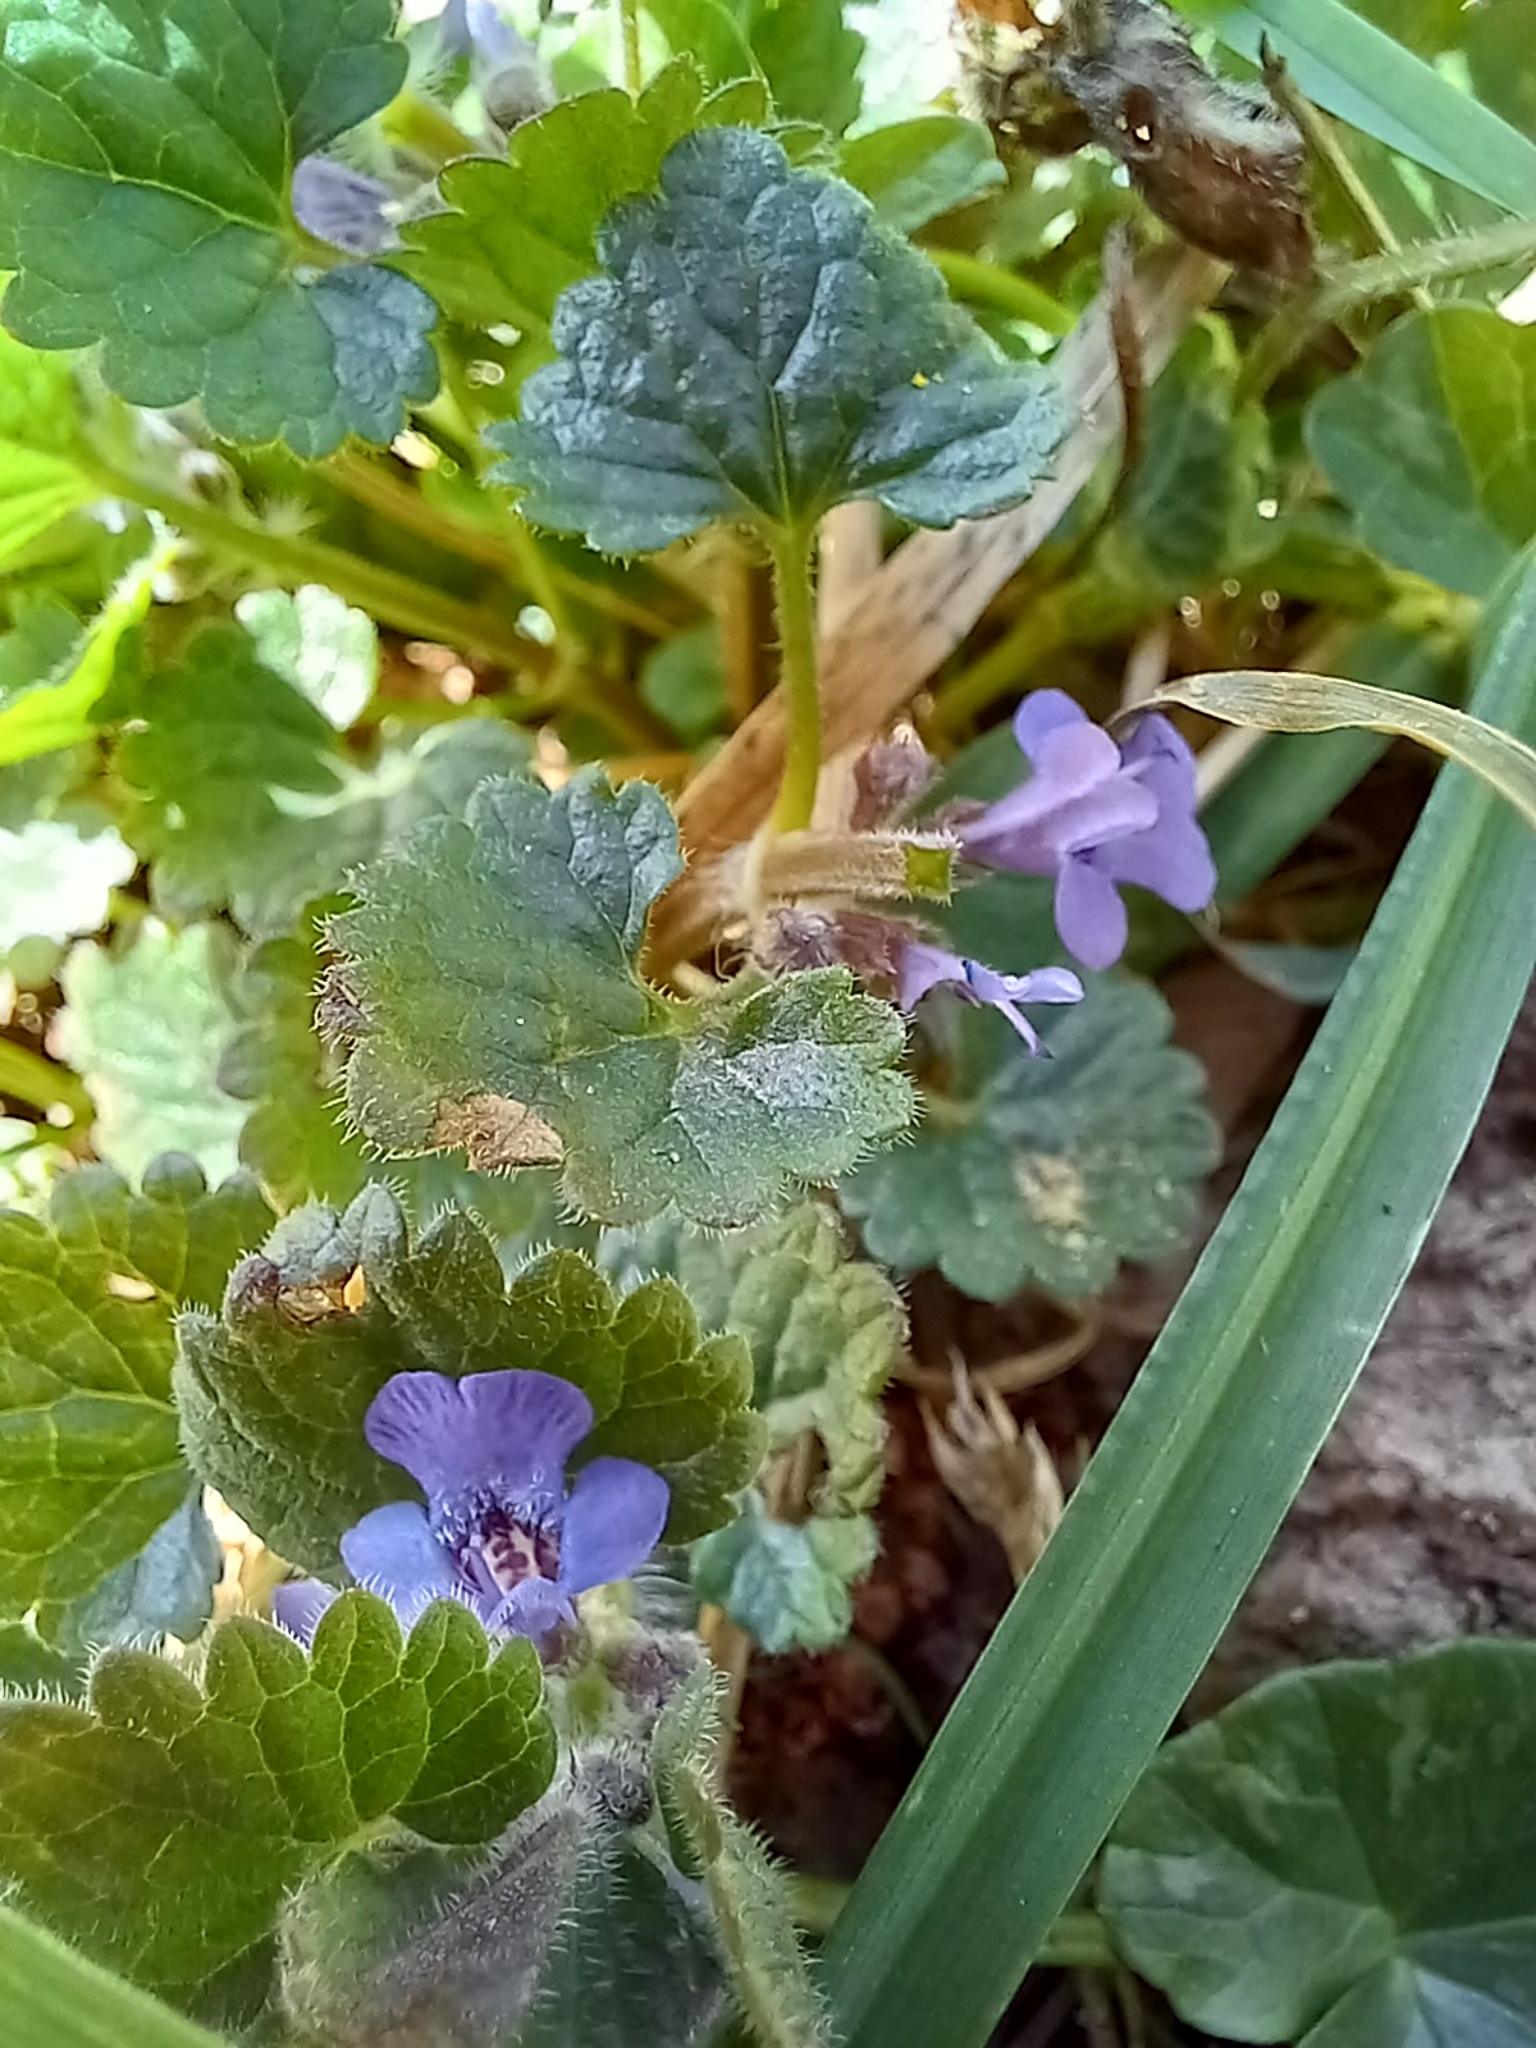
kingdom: Plantae
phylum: Tracheophyta
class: Magnoliopsida
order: Lamiales
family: Lamiaceae
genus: Glechoma
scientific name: Glechoma hederacea
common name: Ground ivy
